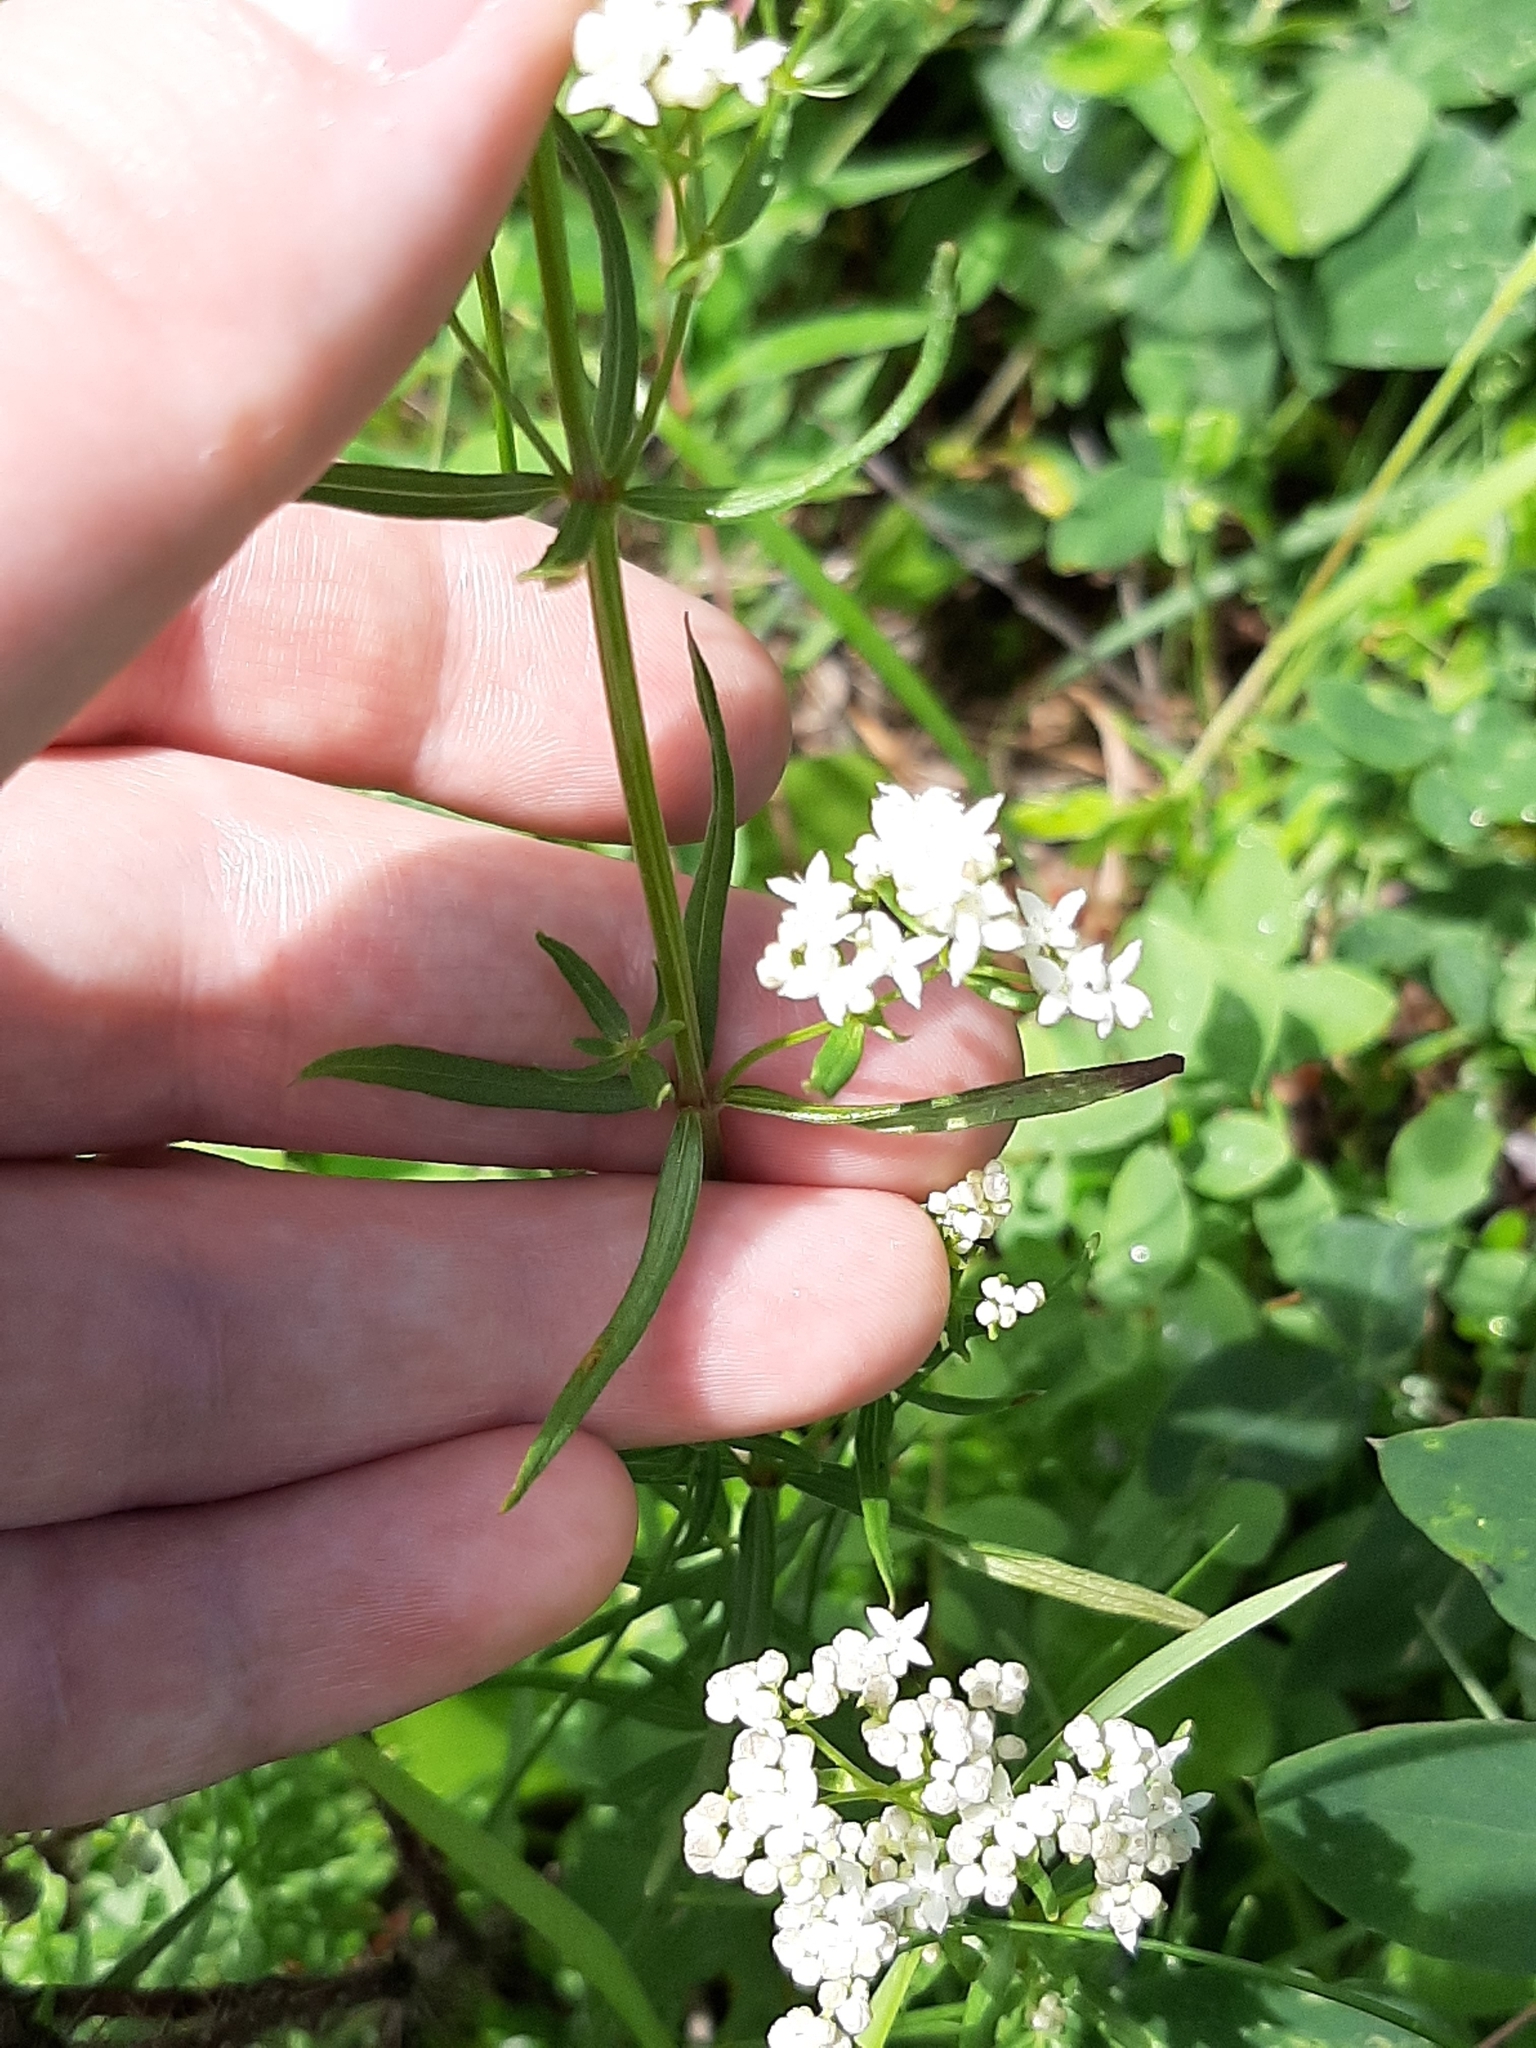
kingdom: Plantae
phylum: Tracheophyta
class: Magnoliopsida
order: Gentianales
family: Rubiaceae
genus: Galium
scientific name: Galium boreale
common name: Northern bedstraw
